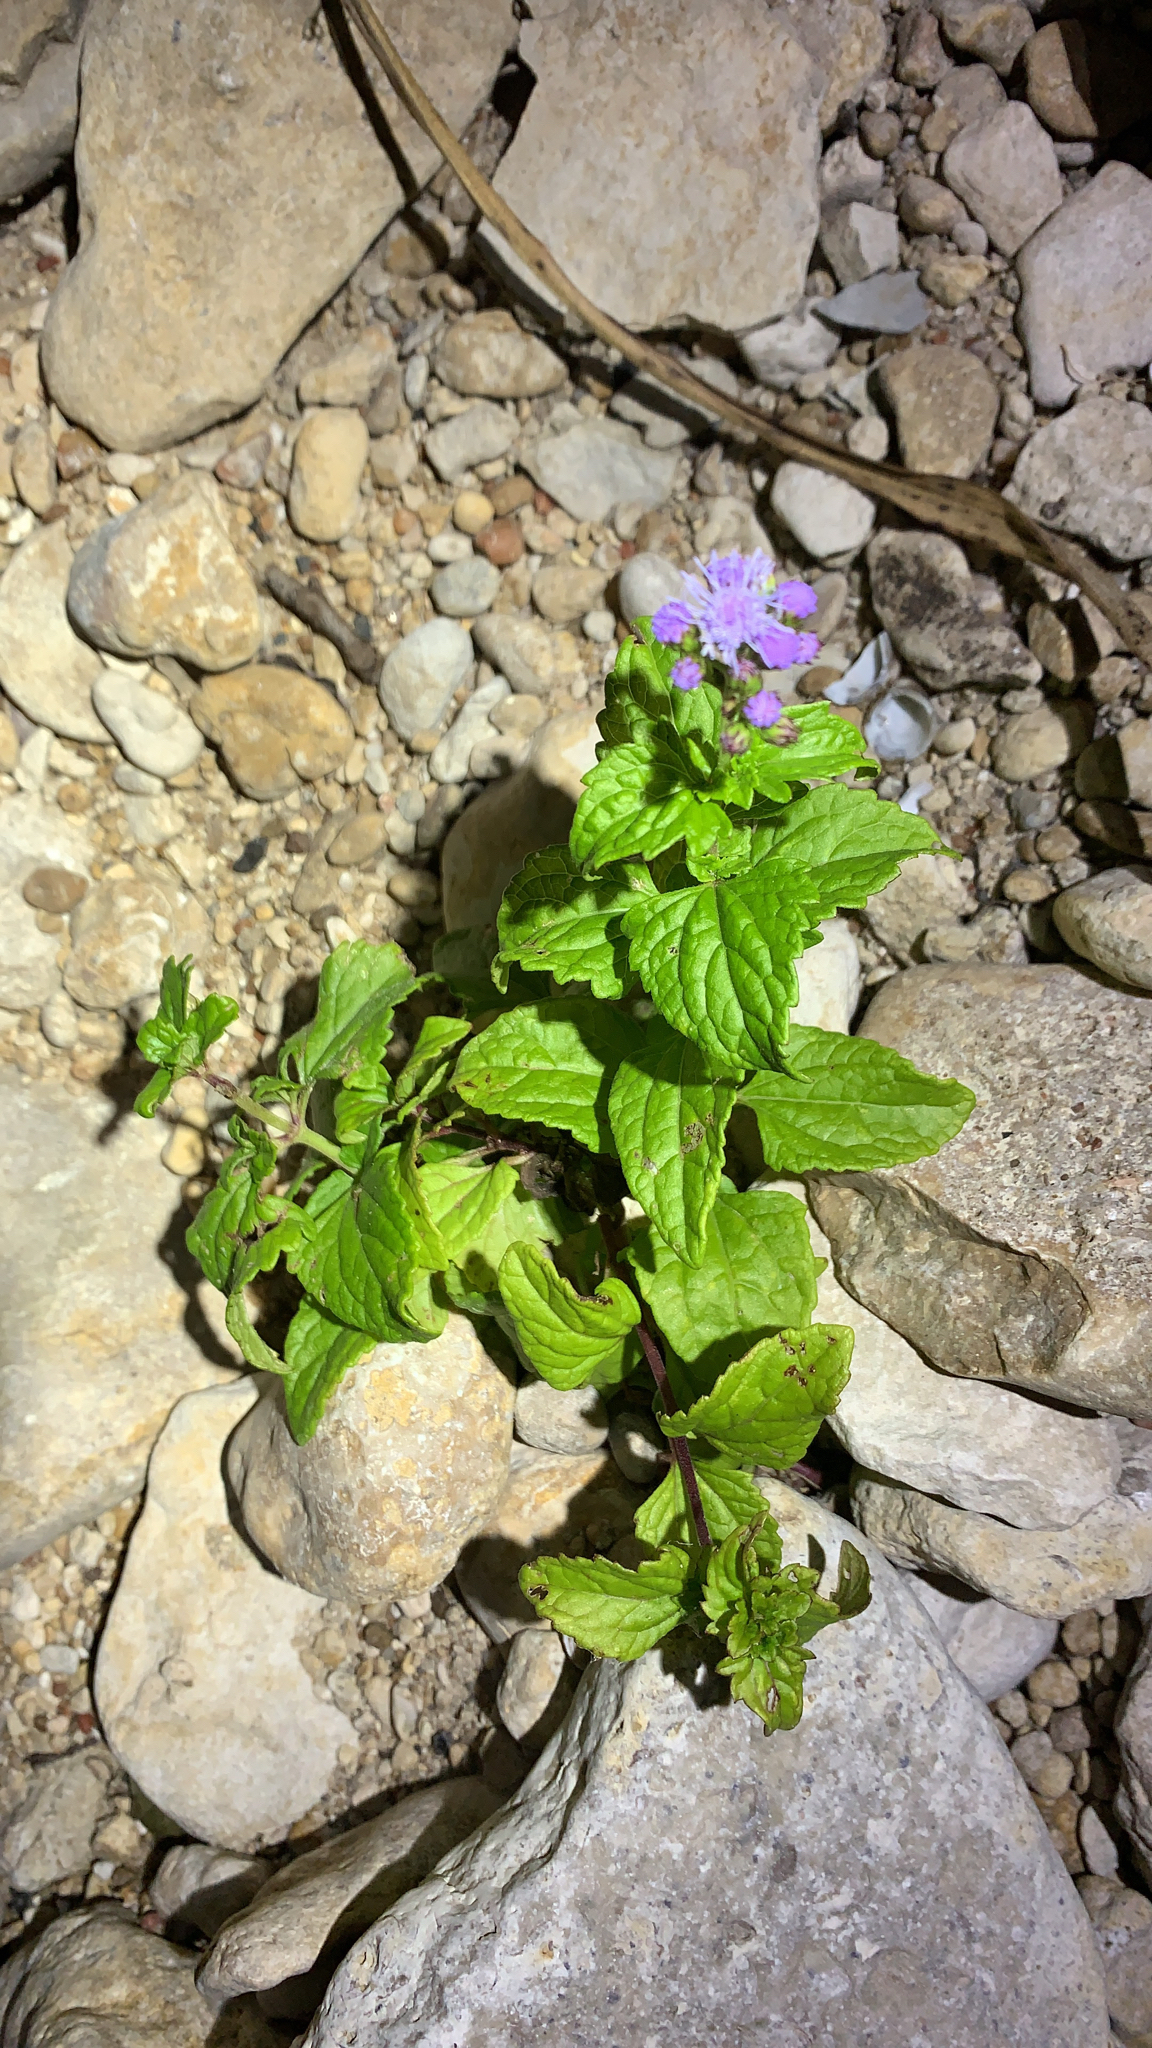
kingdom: Plantae
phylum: Tracheophyta
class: Magnoliopsida
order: Asterales
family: Asteraceae
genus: Conoclinium
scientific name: Conoclinium coelestinum
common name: Blue mistflower
